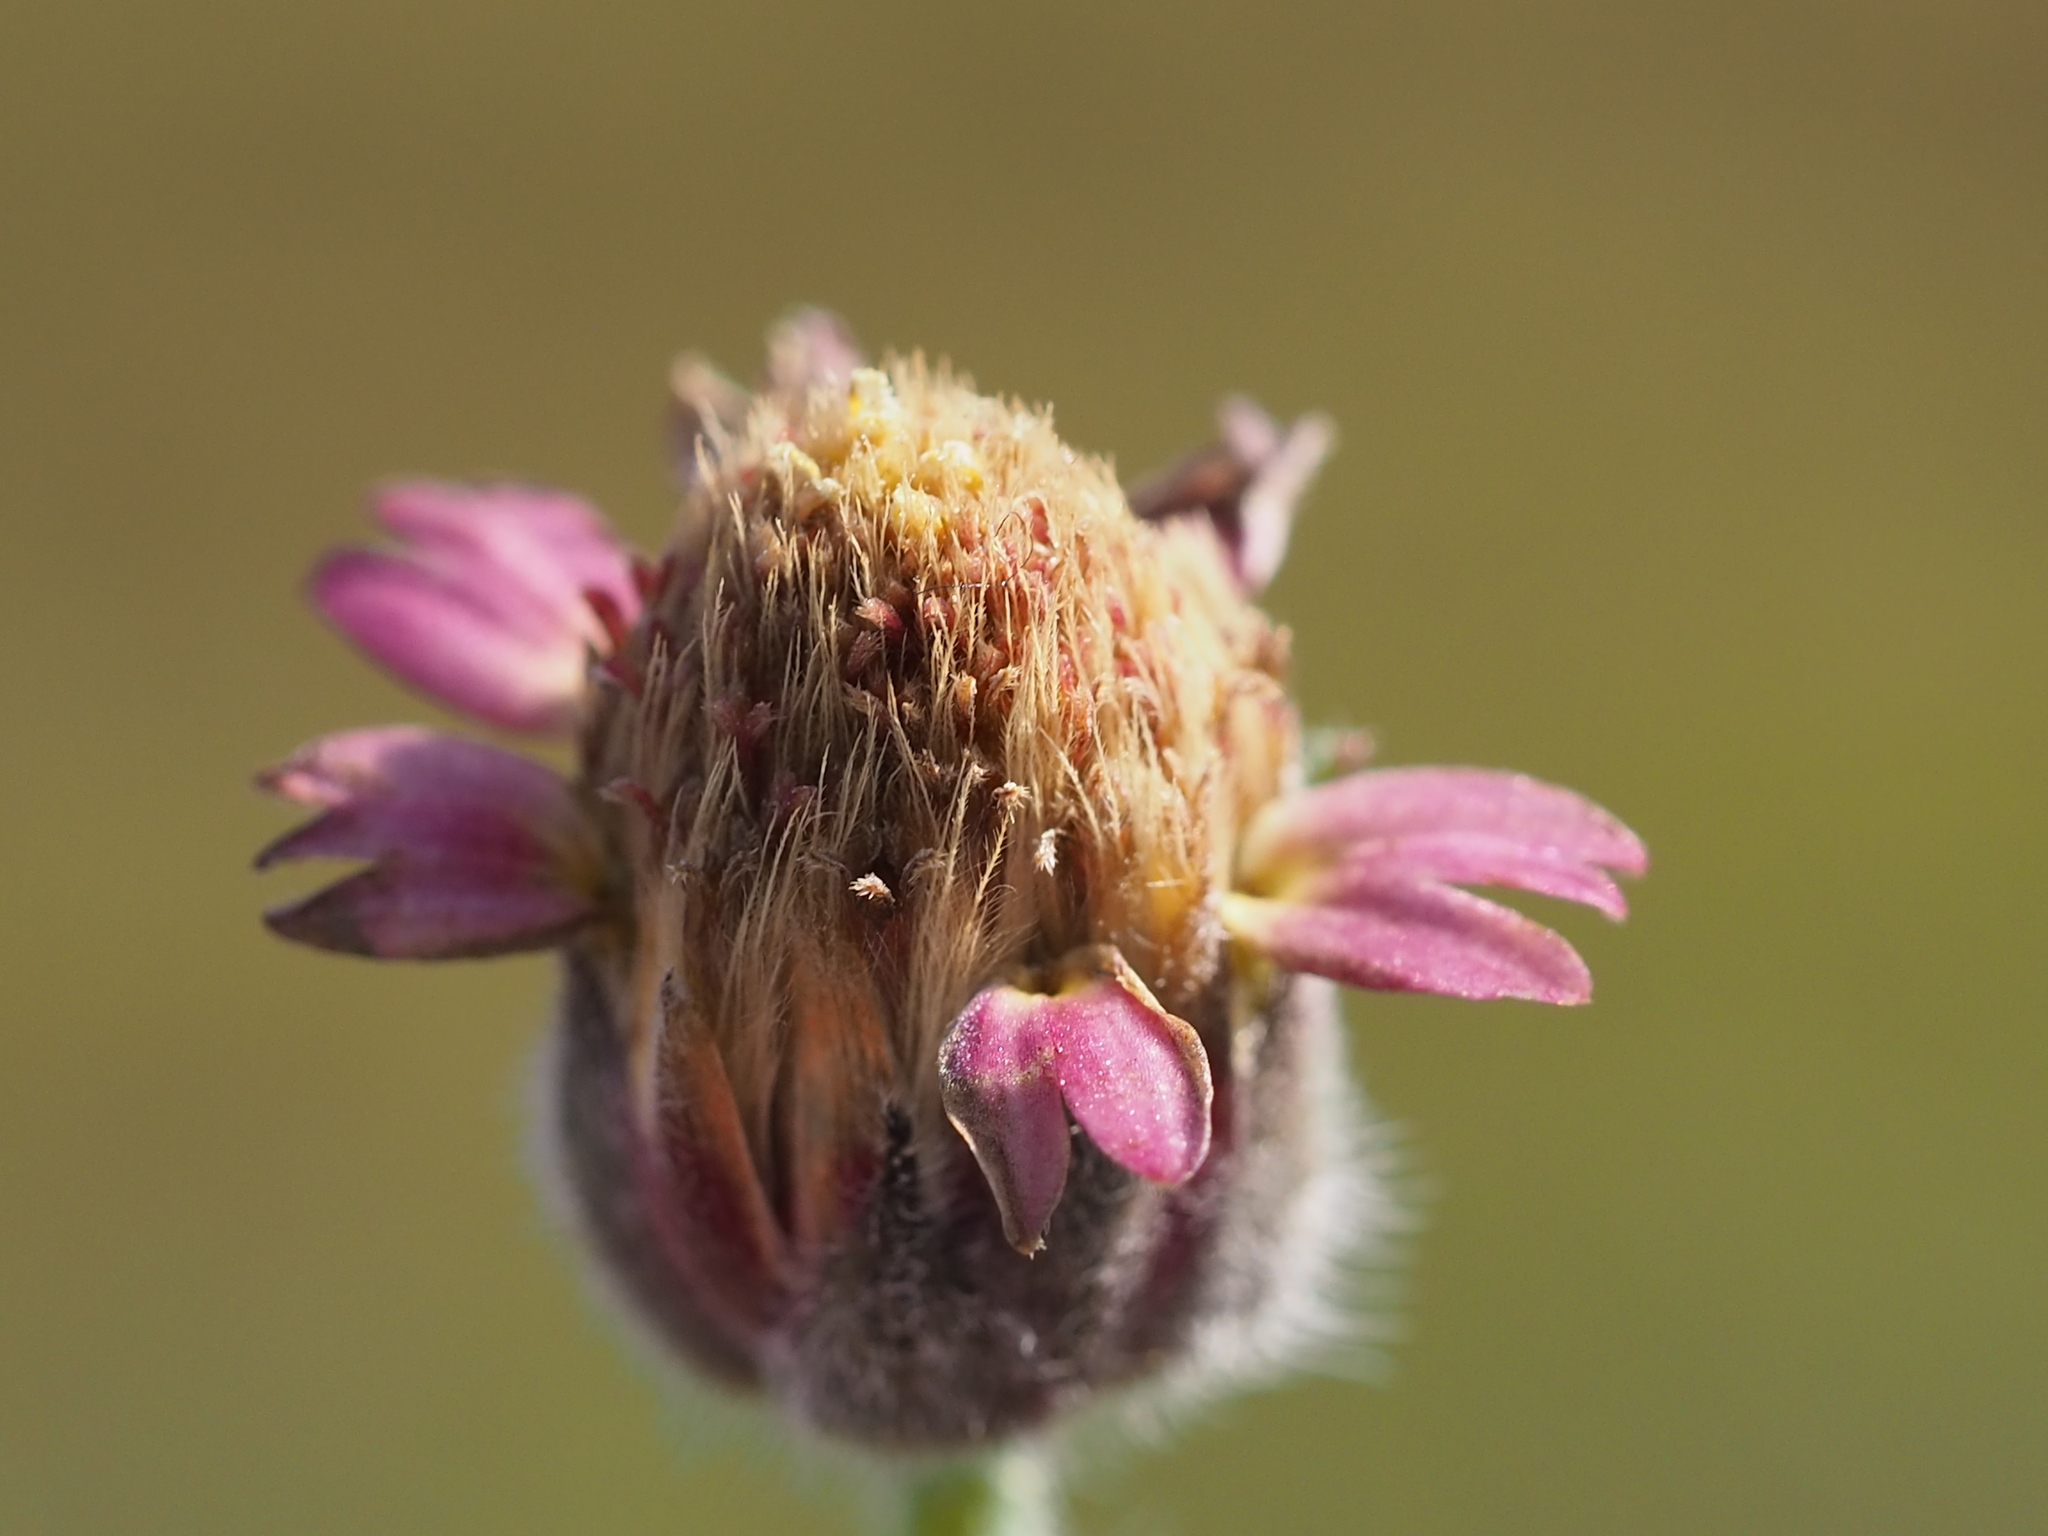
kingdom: Plantae
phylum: Tracheophyta
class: Magnoliopsida
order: Asterales
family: Asteraceae
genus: Tridax
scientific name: Tridax procumbens
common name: Coatbuttons
